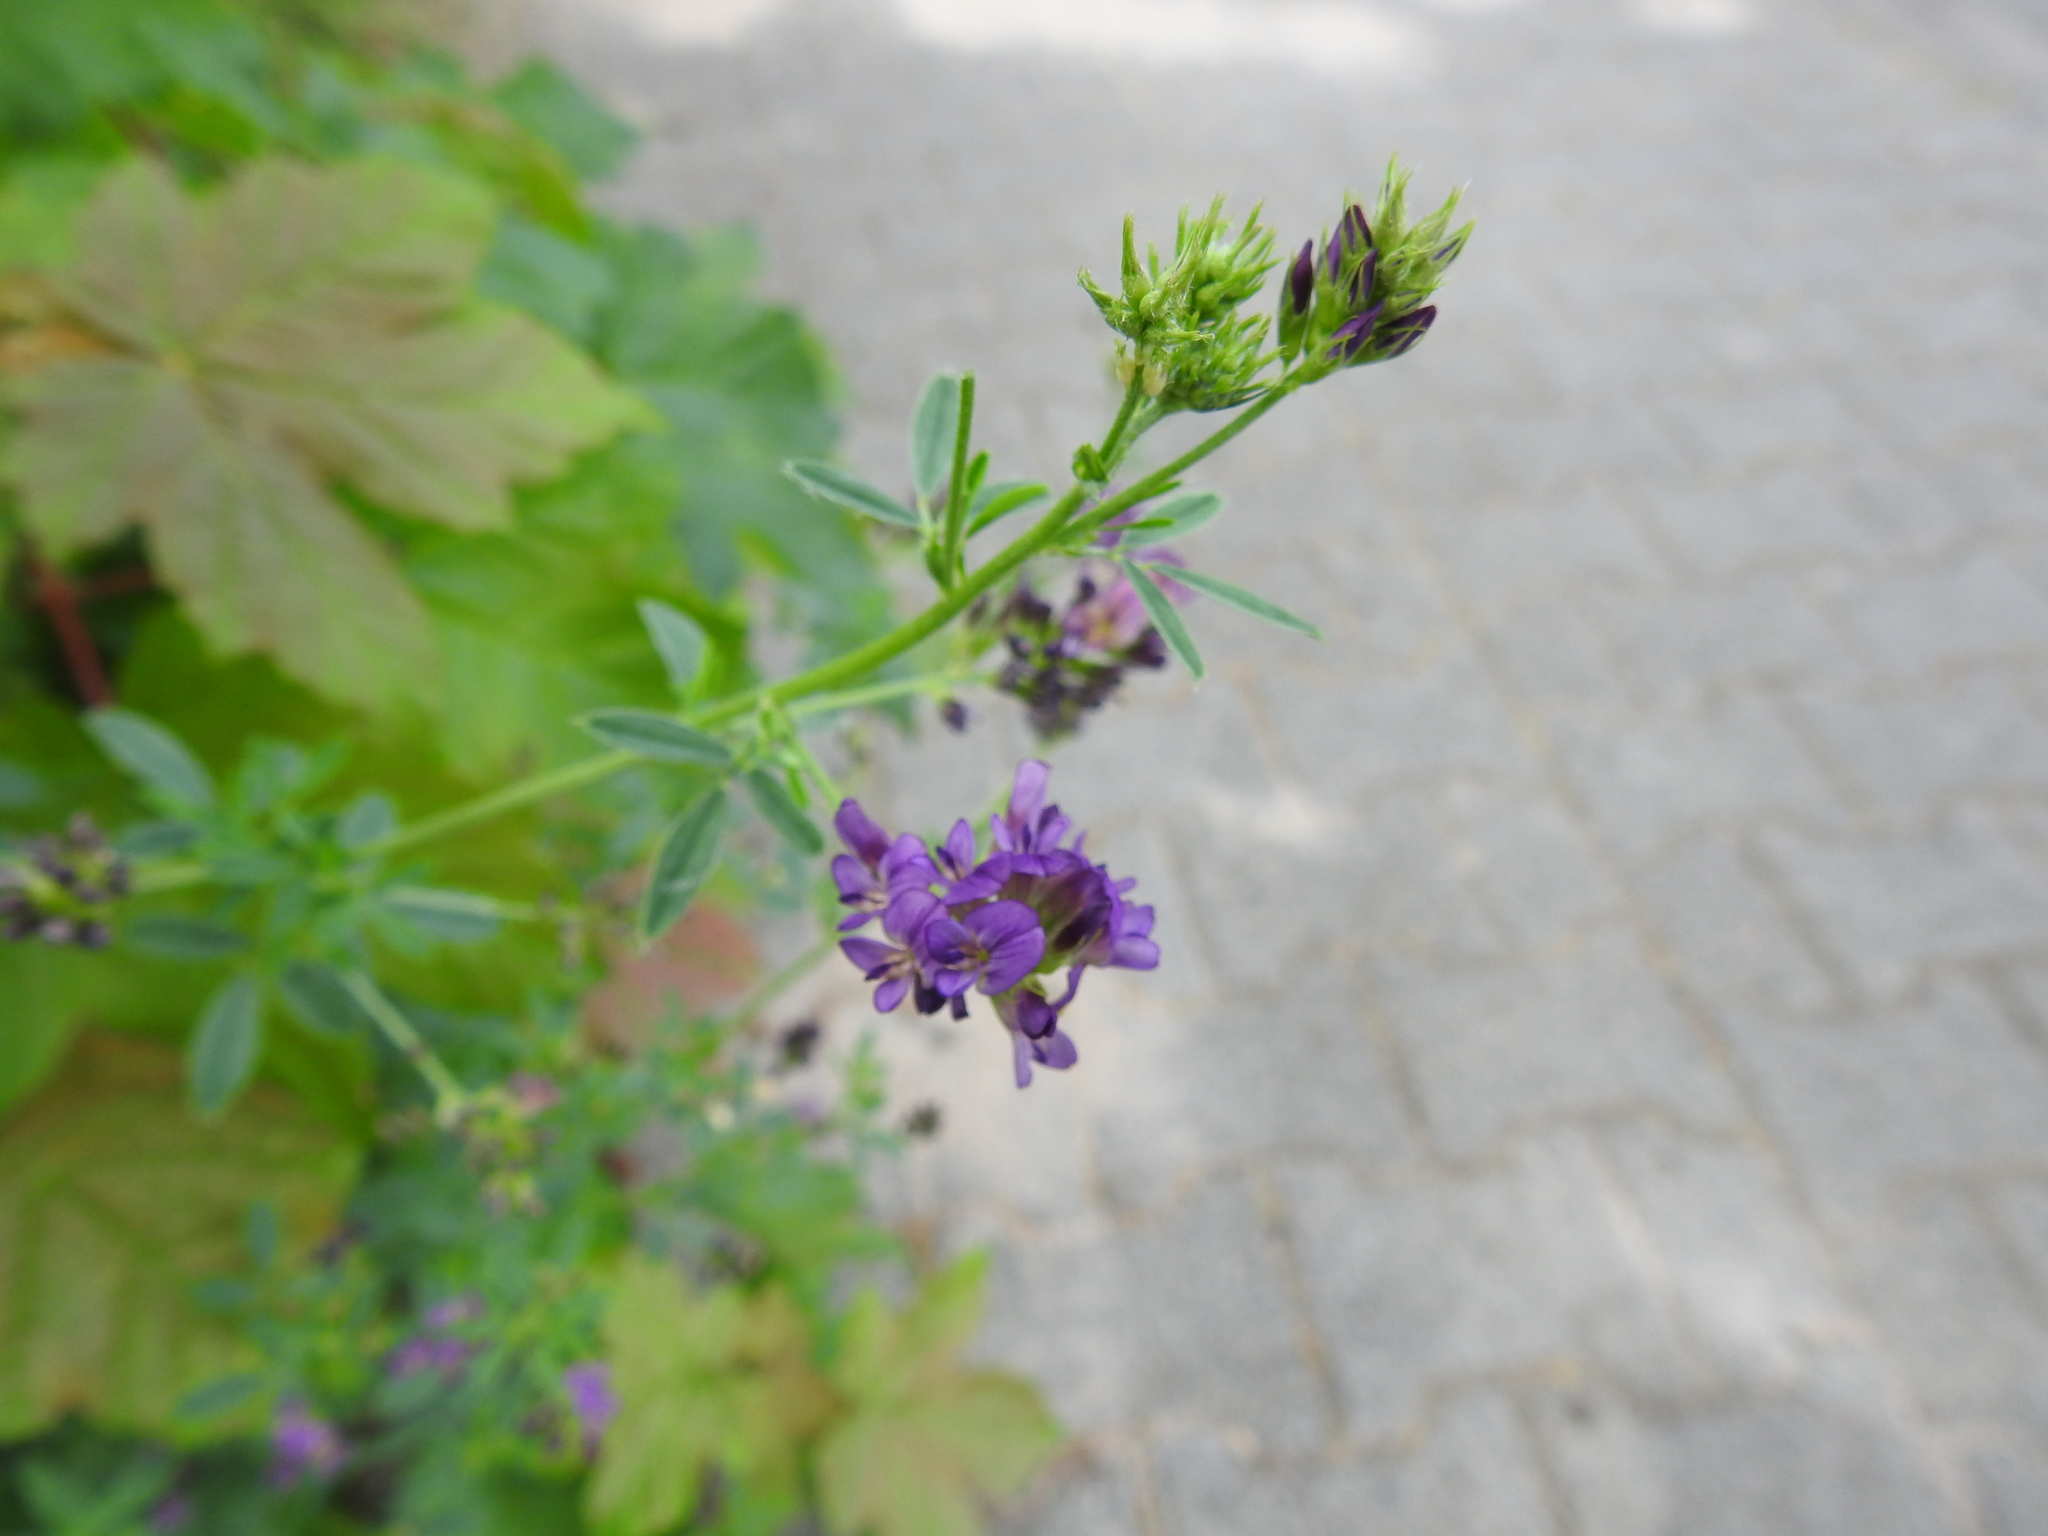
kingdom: Plantae
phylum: Tracheophyta
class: Magnoliopsida
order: Fabales
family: Fabaceae
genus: Medicago
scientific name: Medicago sativa
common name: Alfalfa
